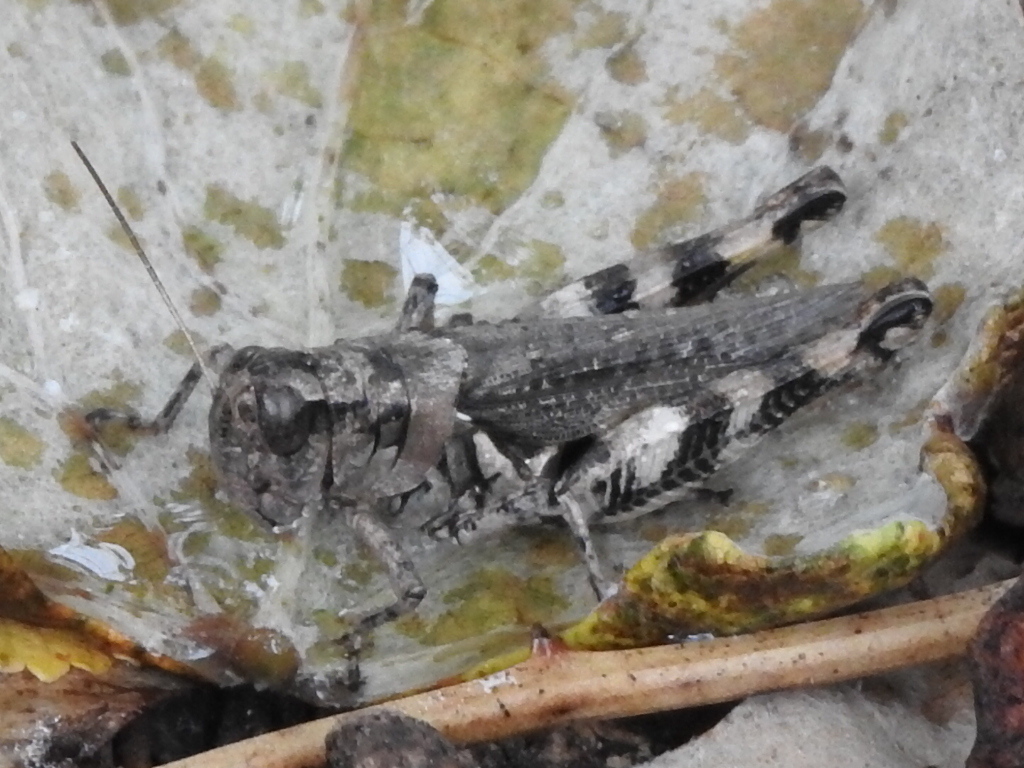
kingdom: Animalia
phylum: Arthropoda
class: Insecta
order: Orthoptera
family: Acrididae
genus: Melanoplus
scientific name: Melanoplus ponderosus
